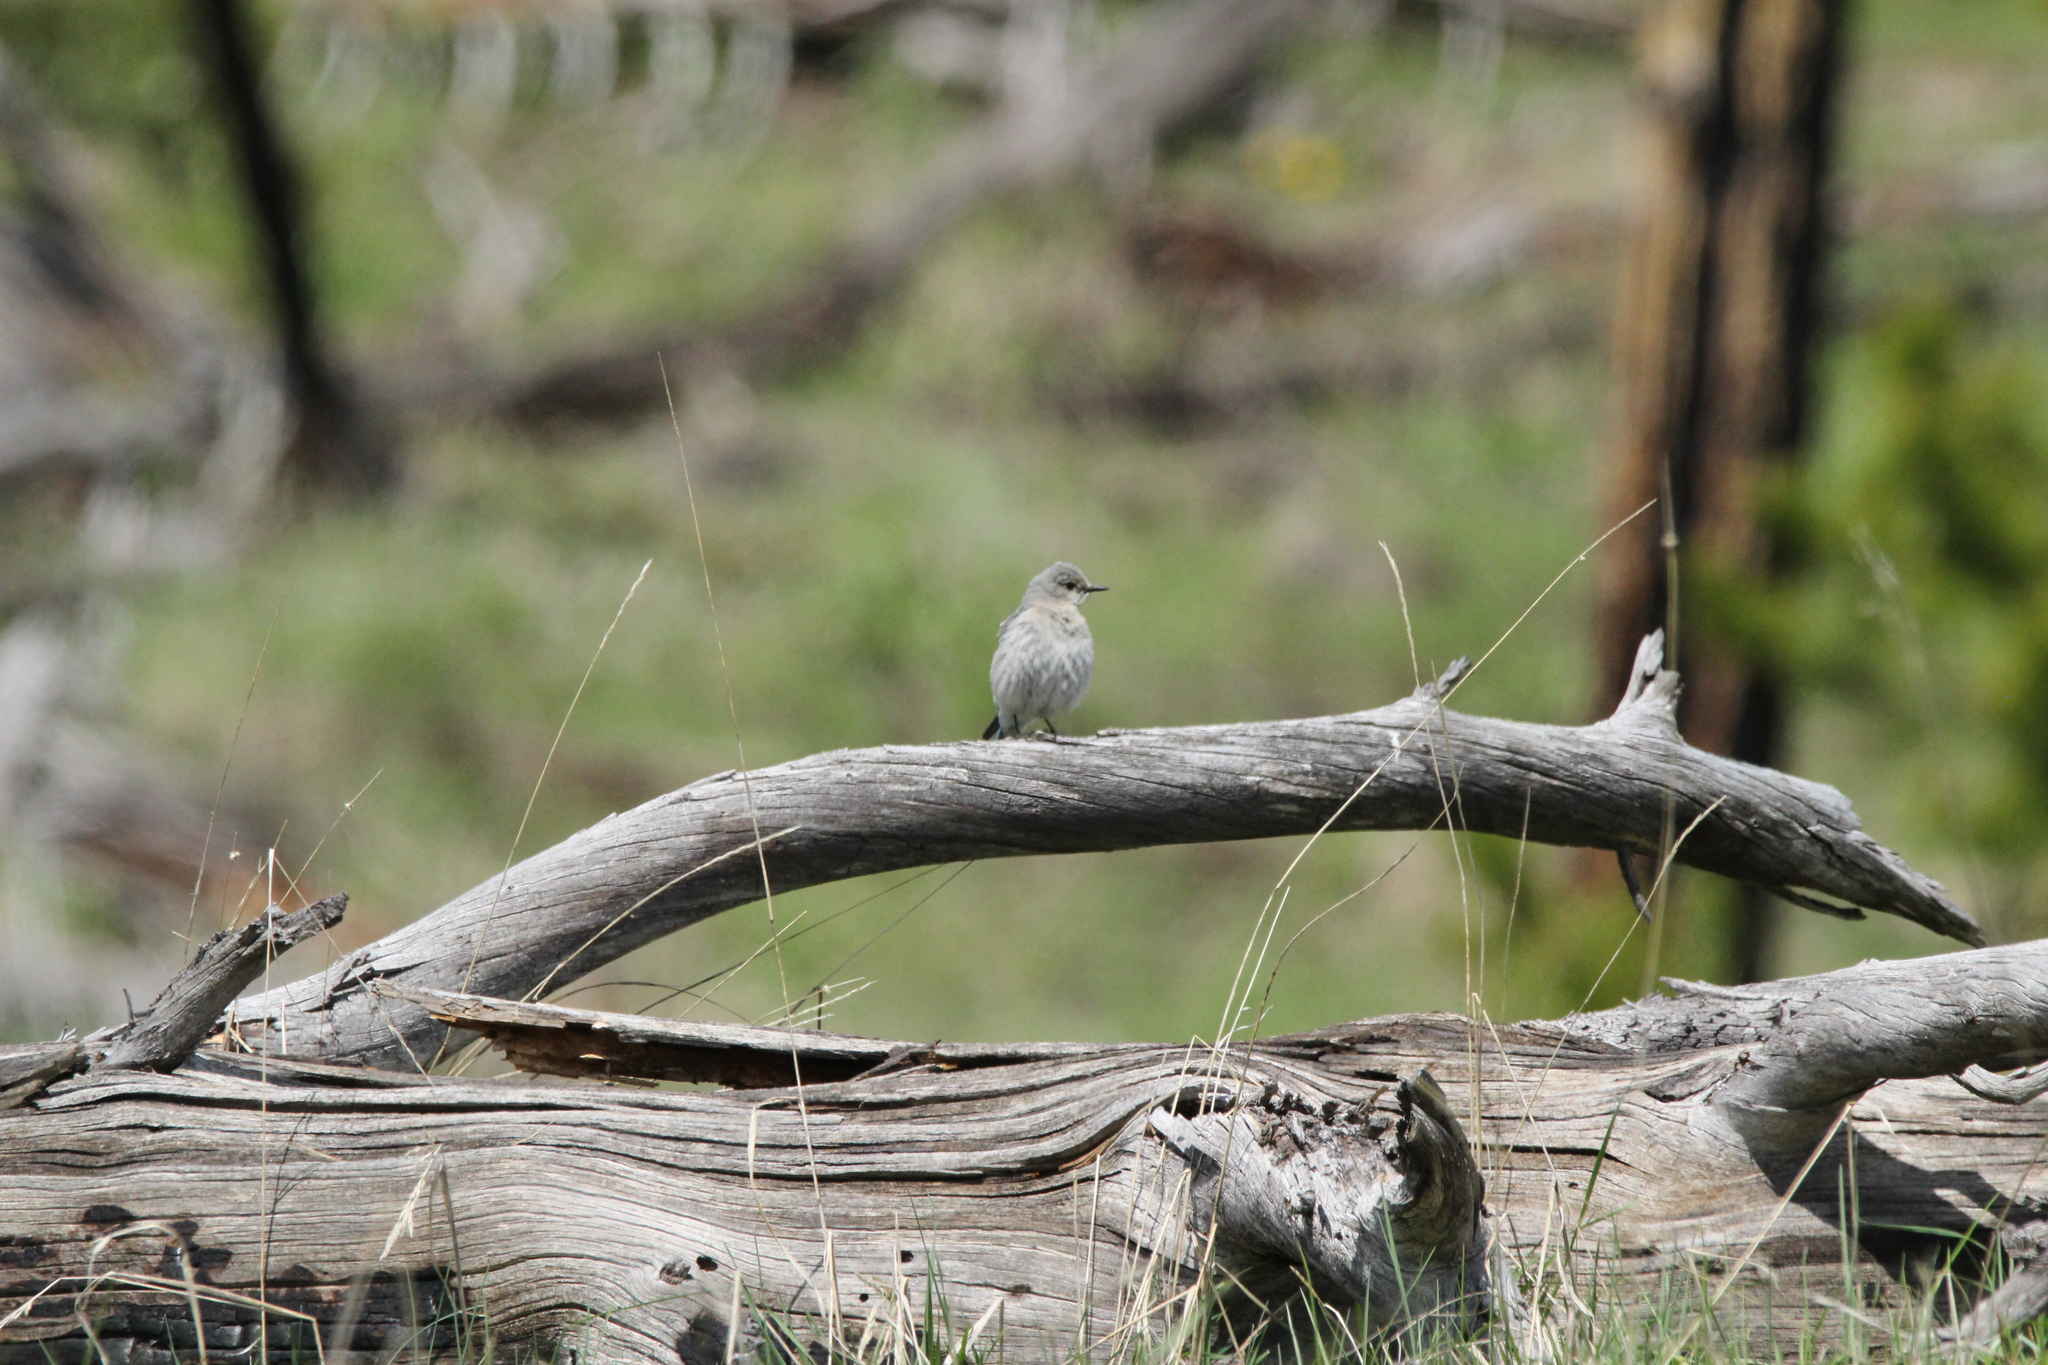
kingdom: Animalia
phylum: Chordata
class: Aves
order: Passeriformes
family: Turdidae
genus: Sialia
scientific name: Sialia currucoides
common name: Mountain bluebird
